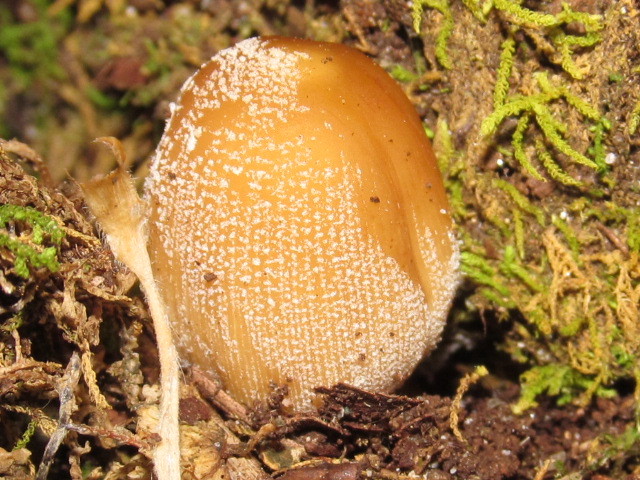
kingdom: Fungi
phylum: Basidiomycota
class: Agaricomycetes
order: Agaricales
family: Psathyrellaceae
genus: Coprinellus
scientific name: Coprinellus micaceus
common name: Glistening ink-cap
